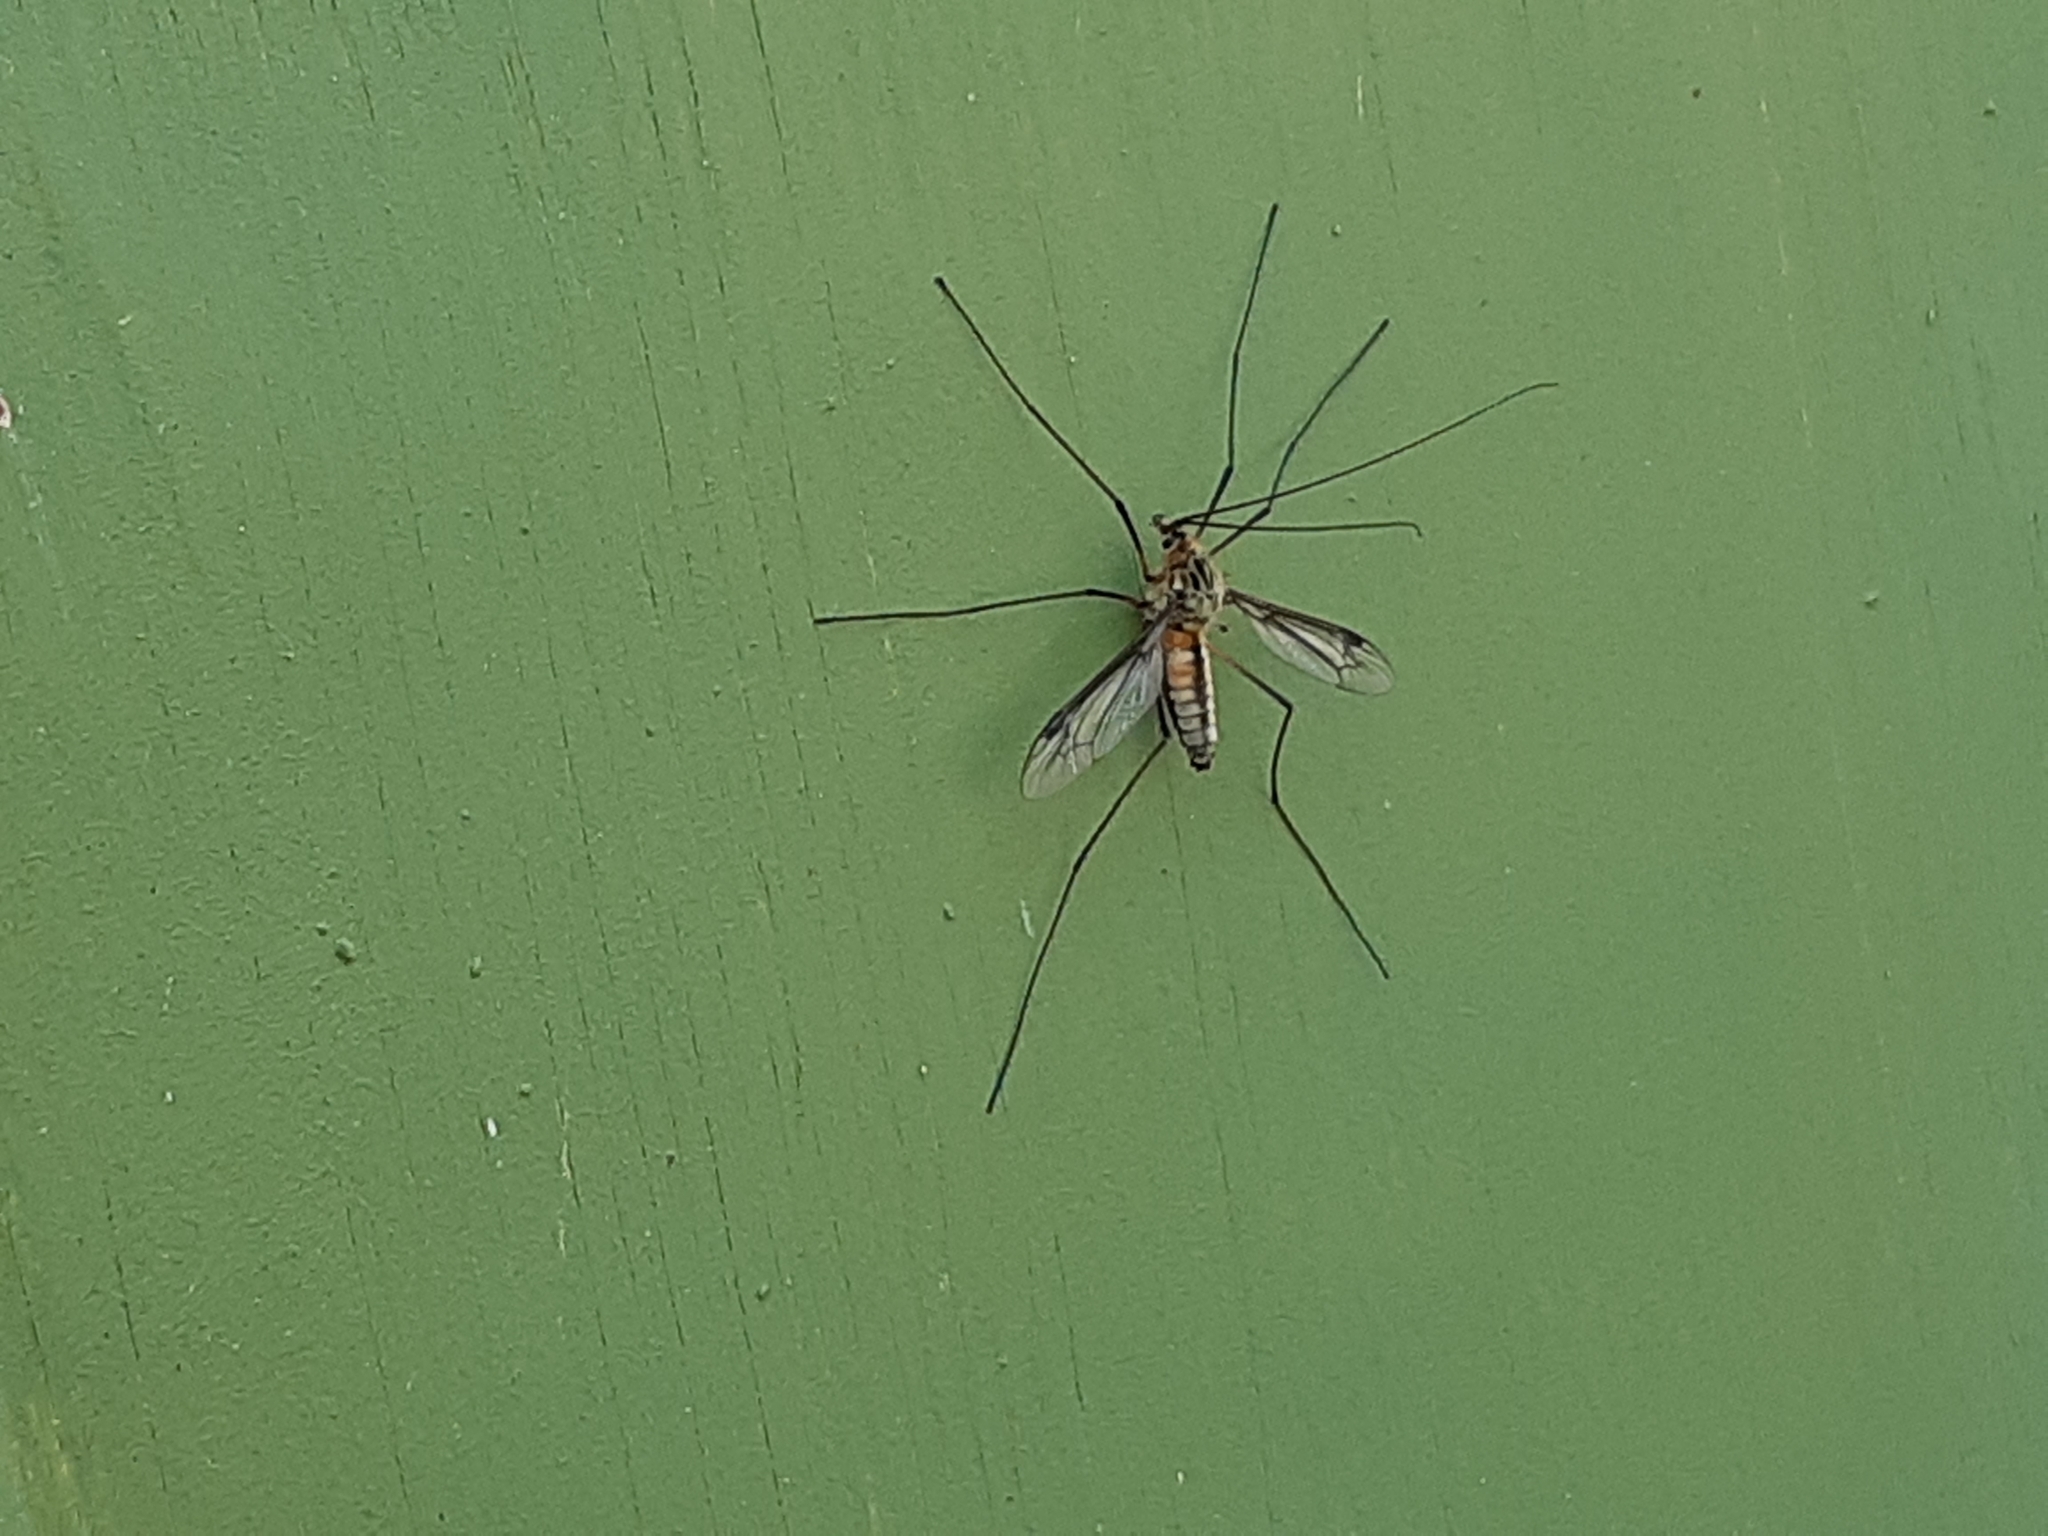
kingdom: Animalia
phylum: Arthropoda
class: Insecta
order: Diptera
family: Tipulidae
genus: Leptotarsus
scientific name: Leptotarsus vulpinus
